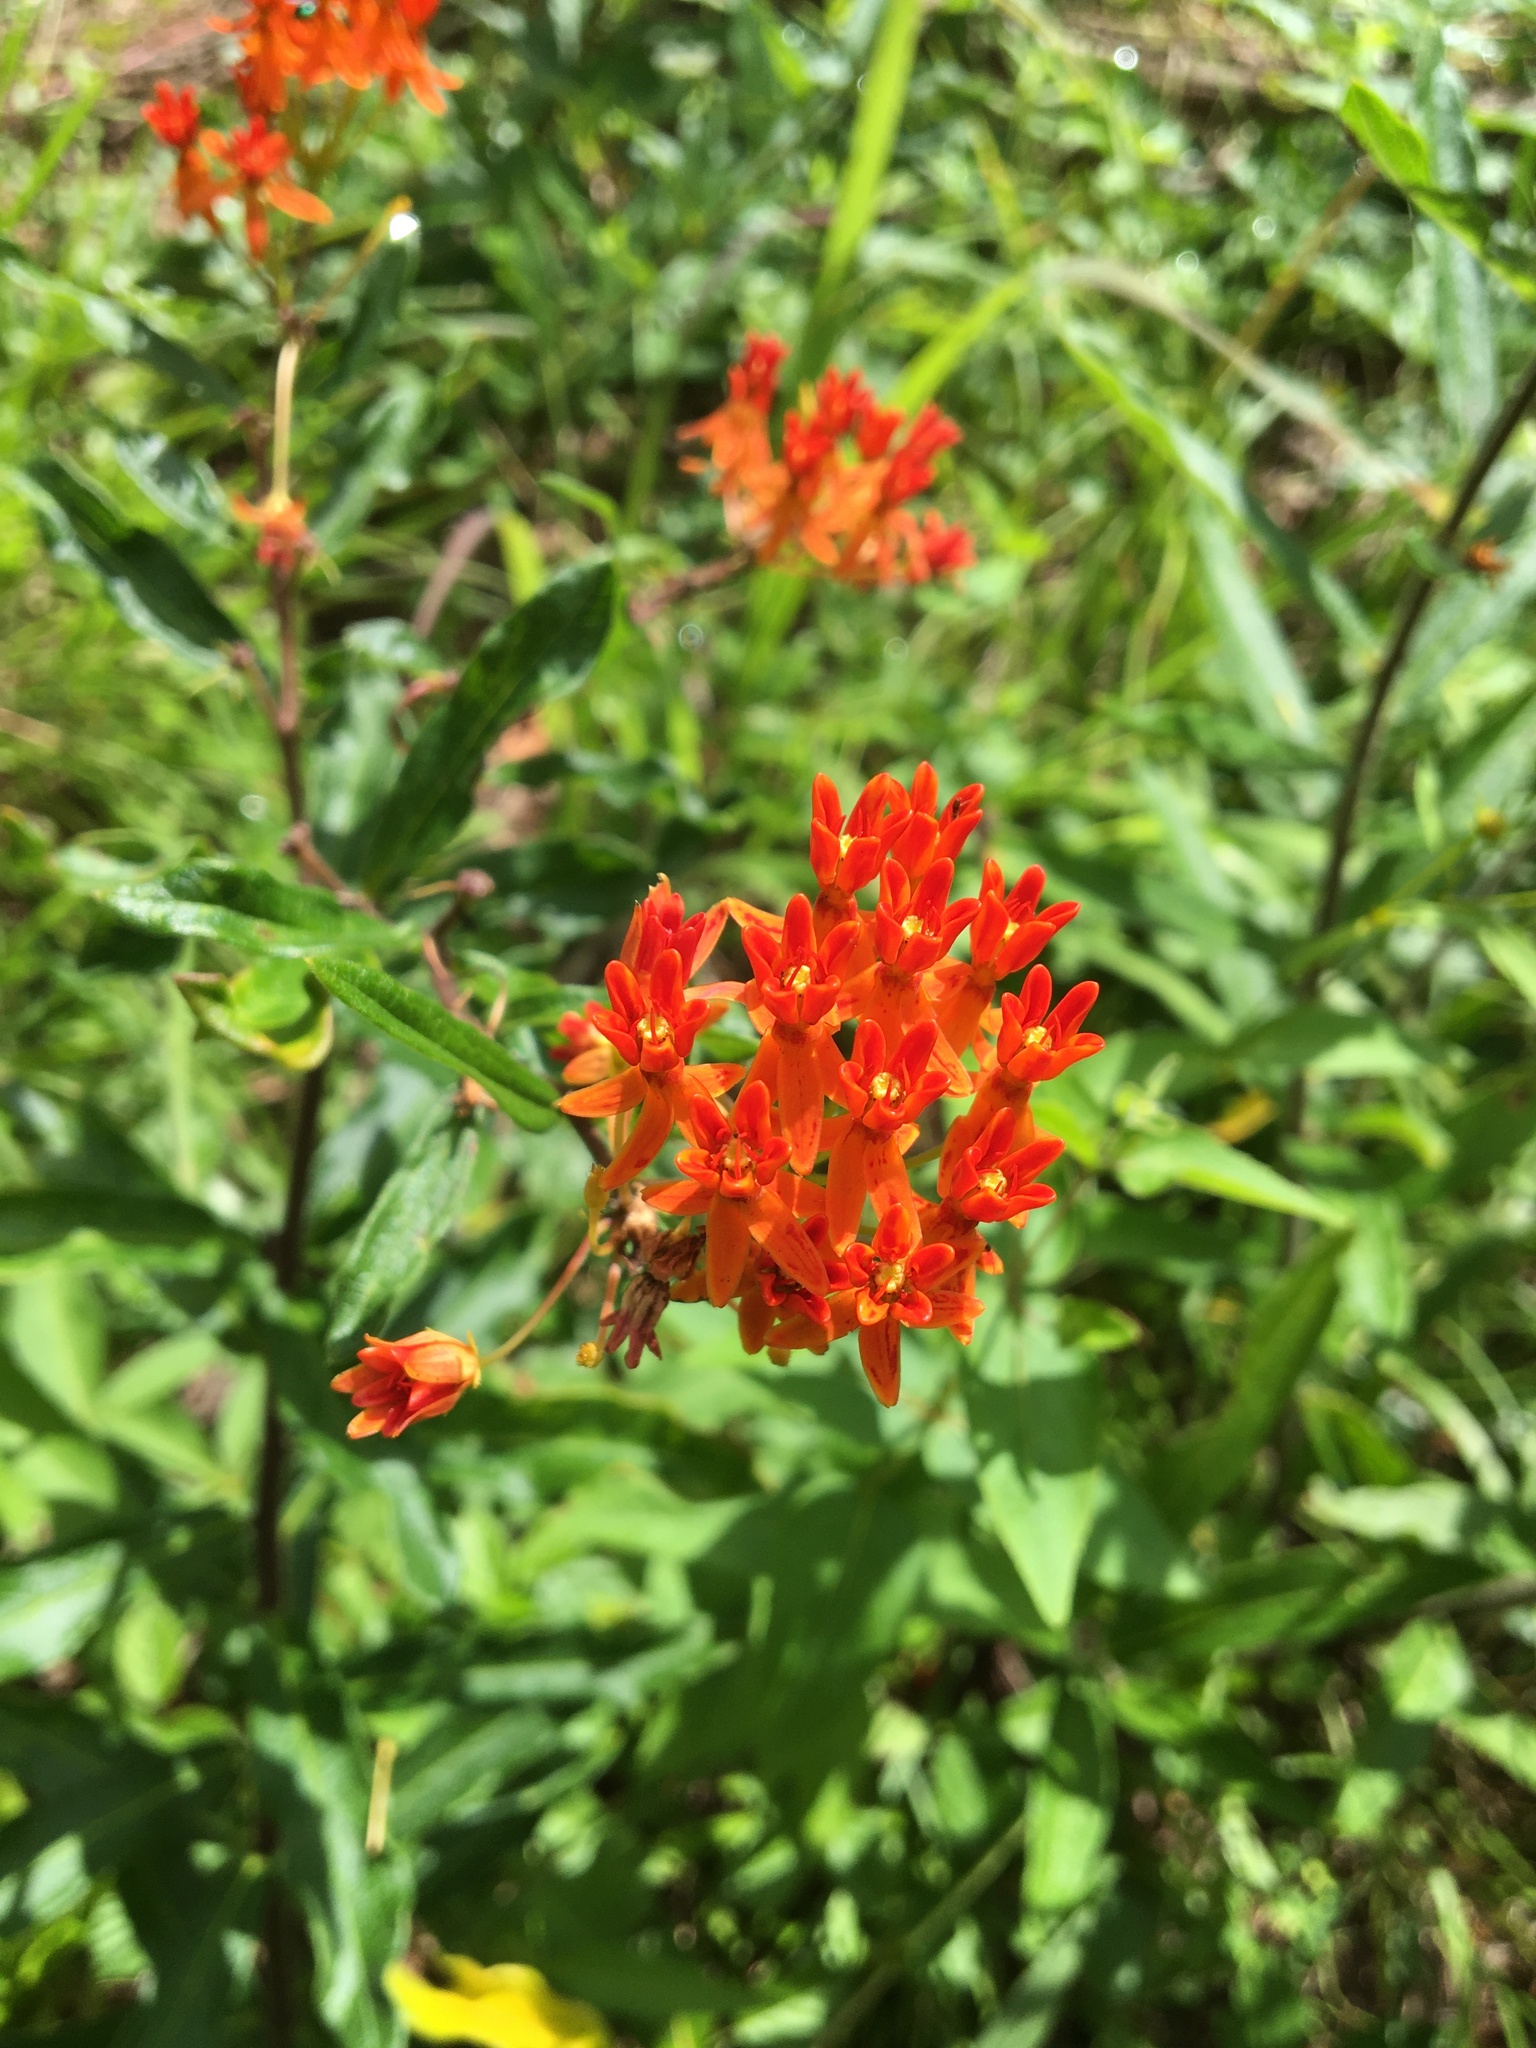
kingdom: Plantae
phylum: Tracheophyta
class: Magnoliopsida
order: Gentianales
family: Apocynaceae
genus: Asclepias
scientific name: Asclepias tuberosa
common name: Butterfly milkweed
